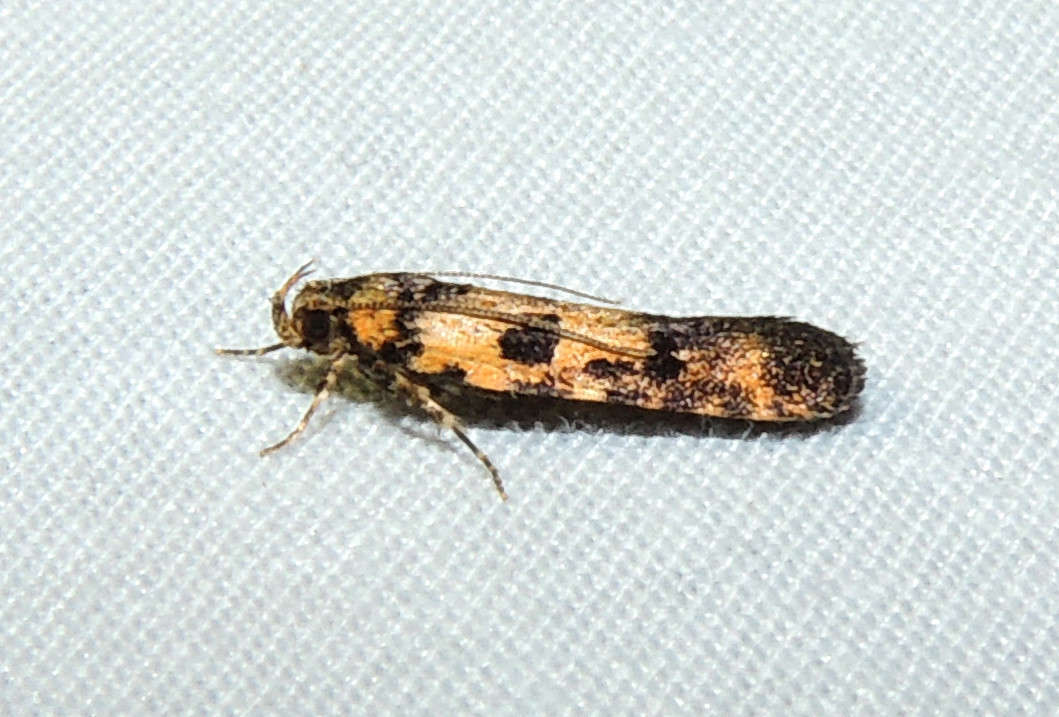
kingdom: Animalia
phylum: Arthropoda
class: Insecta
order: Lepidoptera
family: Gelechiidae
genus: Ardozyga
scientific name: Ardozyga thermochroa
